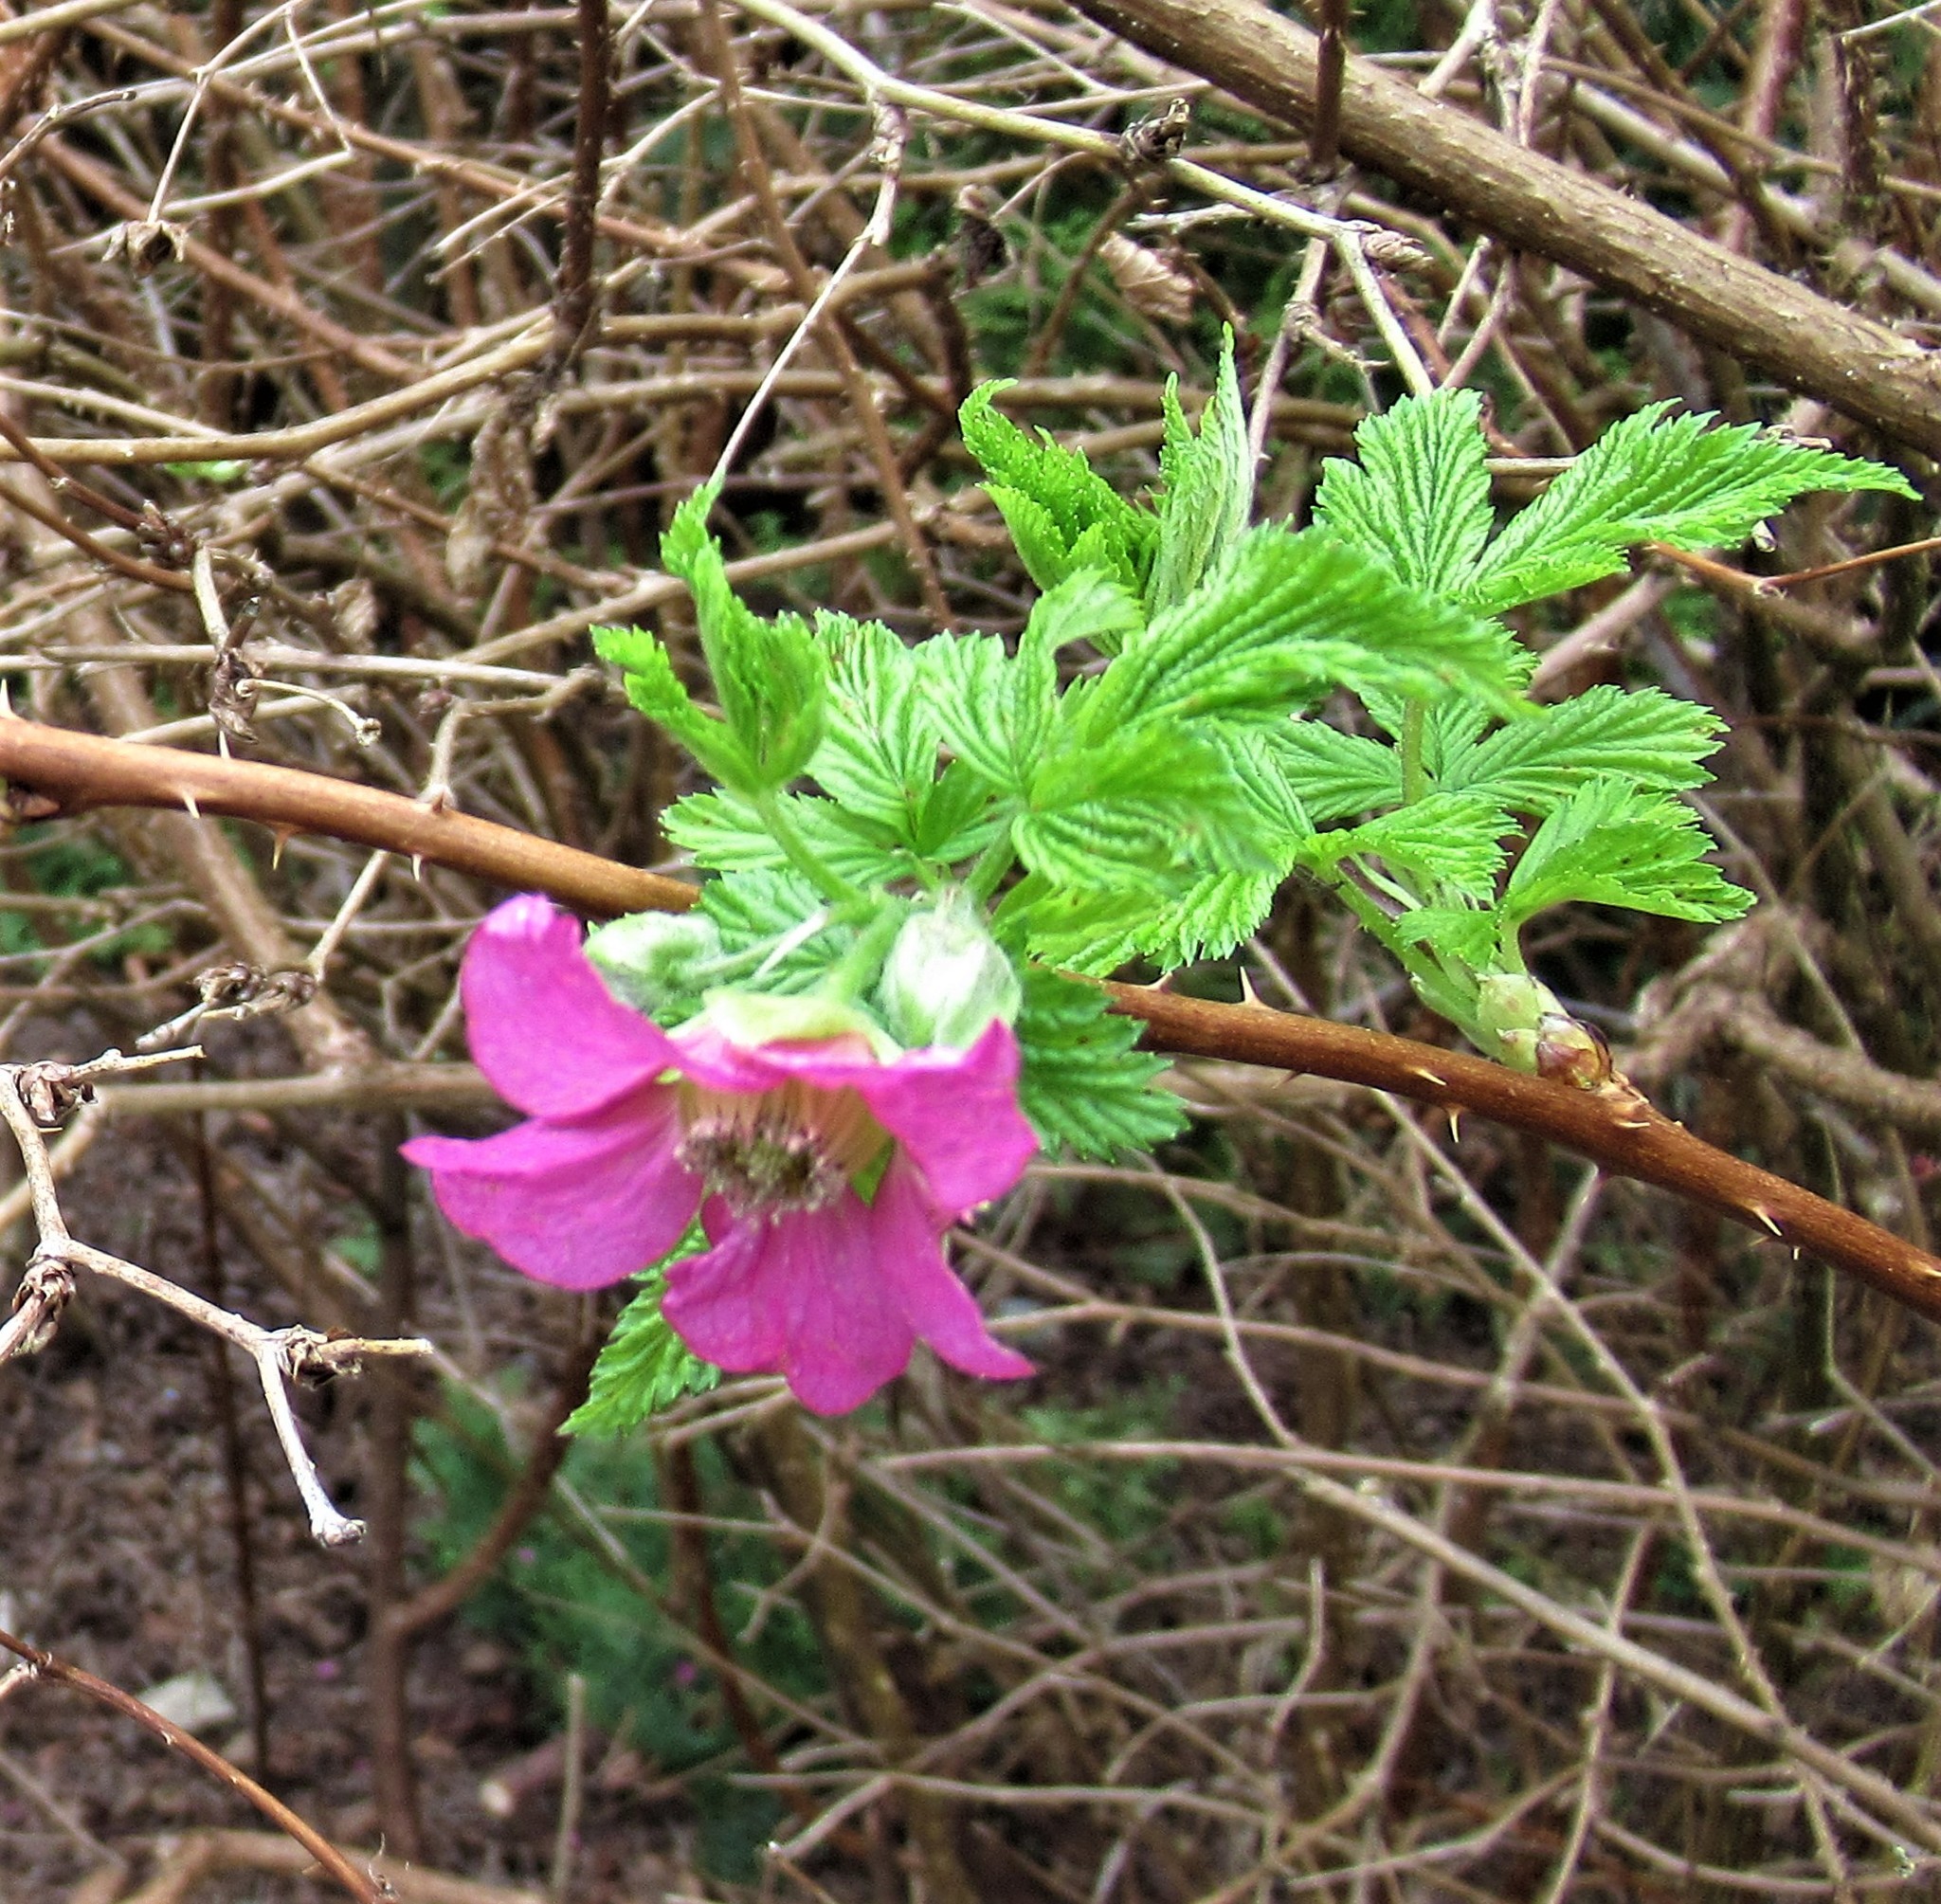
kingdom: Plantae
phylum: Tracheophyta
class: Magnoliopsida
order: Rosales
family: Rosaceae
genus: Rubus
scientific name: Rubus spectabilis
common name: Salmonberry
